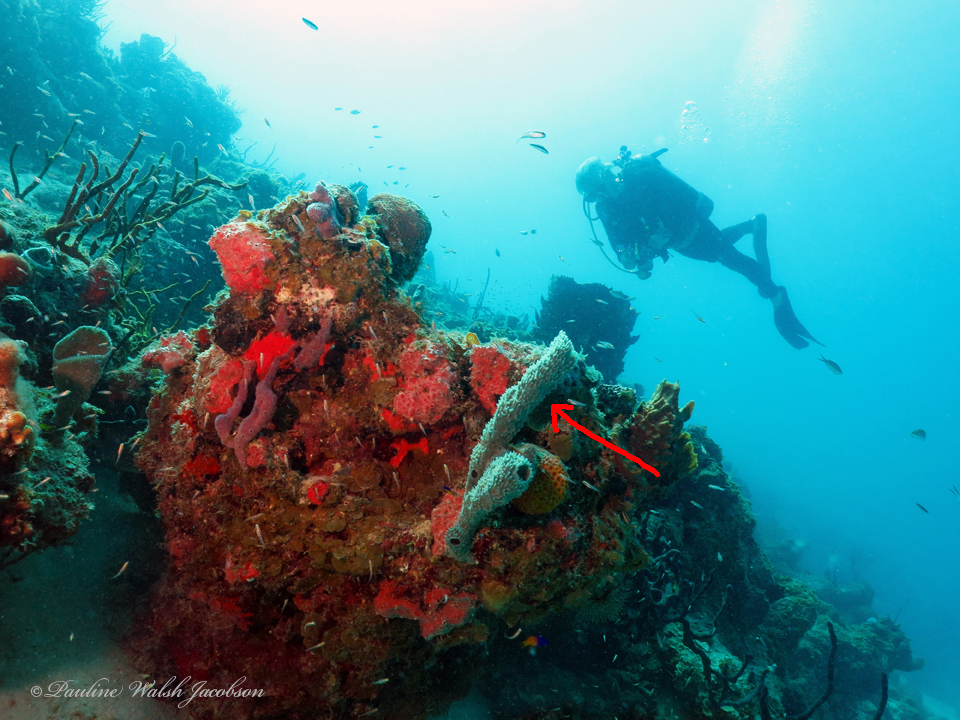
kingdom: Animalia
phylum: Porifera
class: Demospongiae
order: Haplosclerida
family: Callyspongiidae
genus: Callyspongia
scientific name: Callyspongia aculeata
